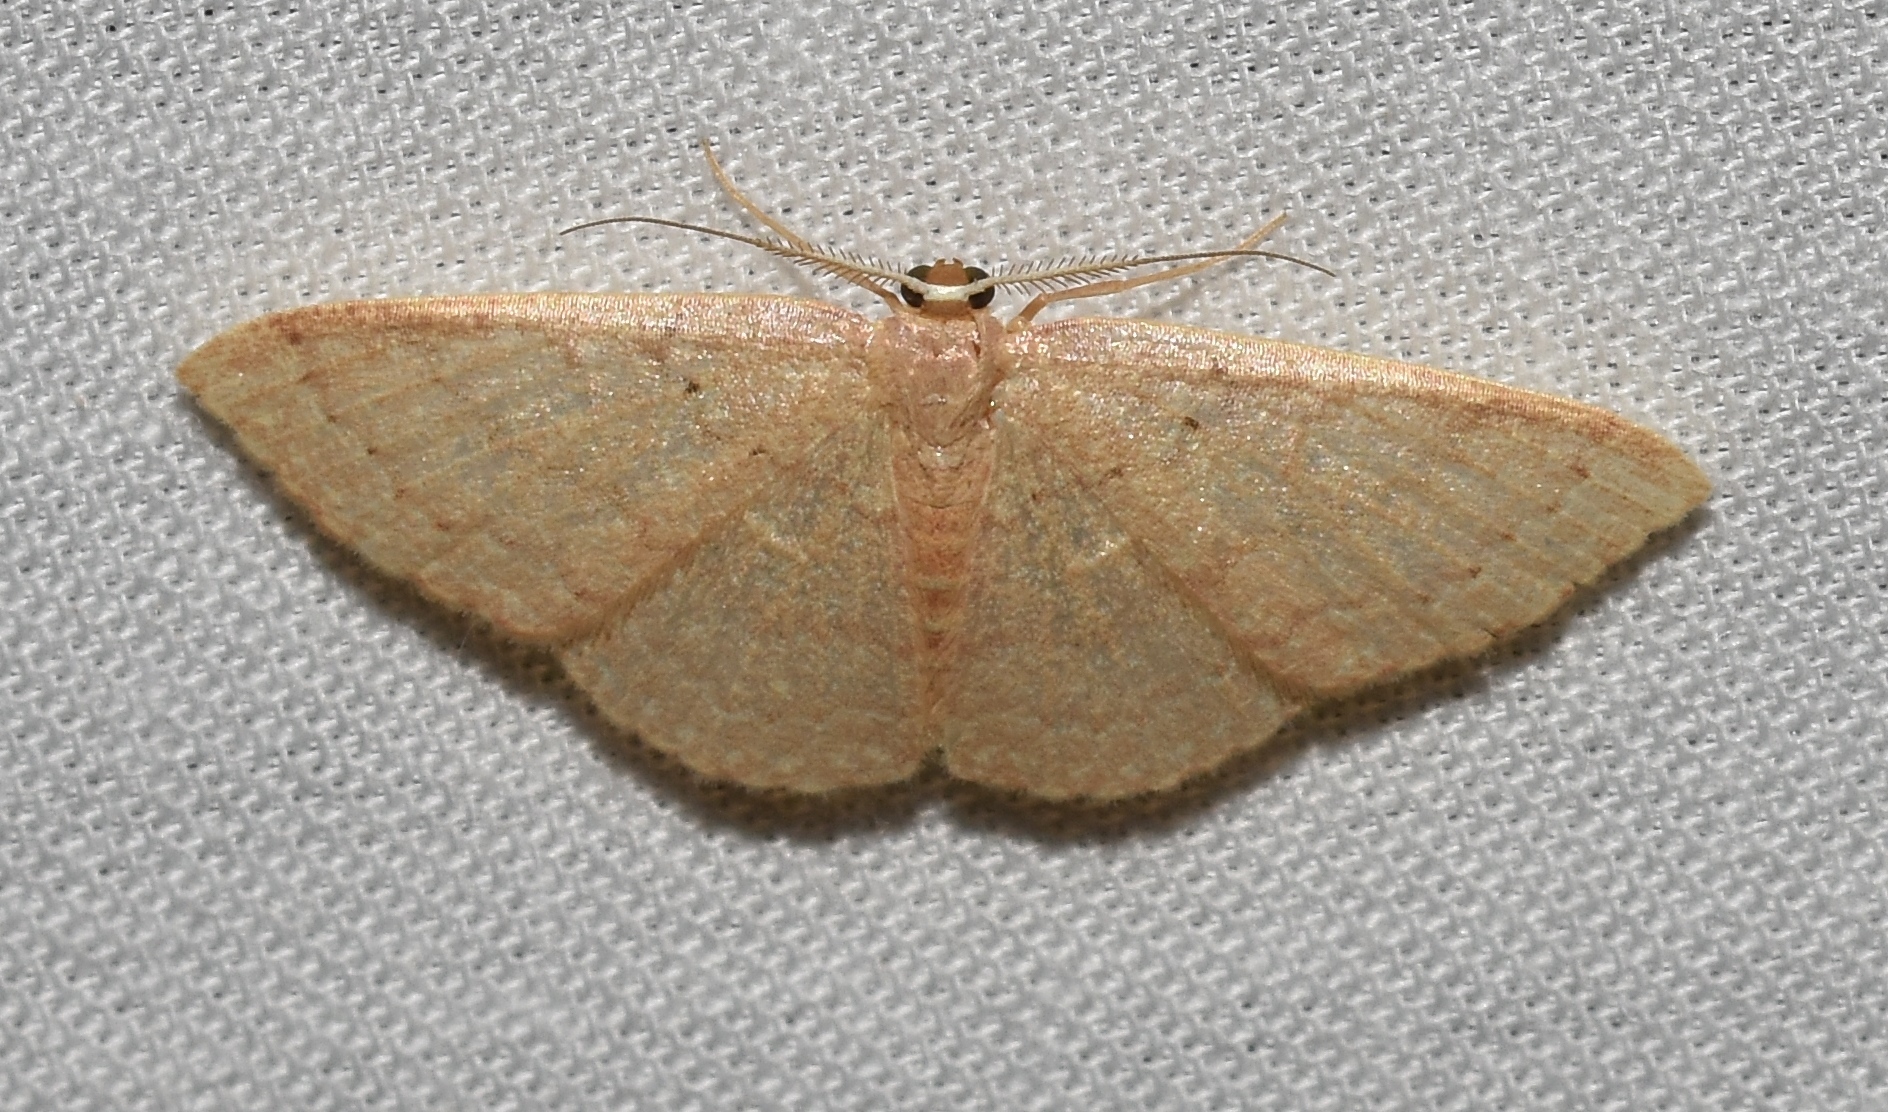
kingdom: Animalia
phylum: Arthropoda
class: Insecta
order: Lepidoptera
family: Geometridae
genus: Pleuroprucha
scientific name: Pleuroprucha insulsaria
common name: Common tan wave
